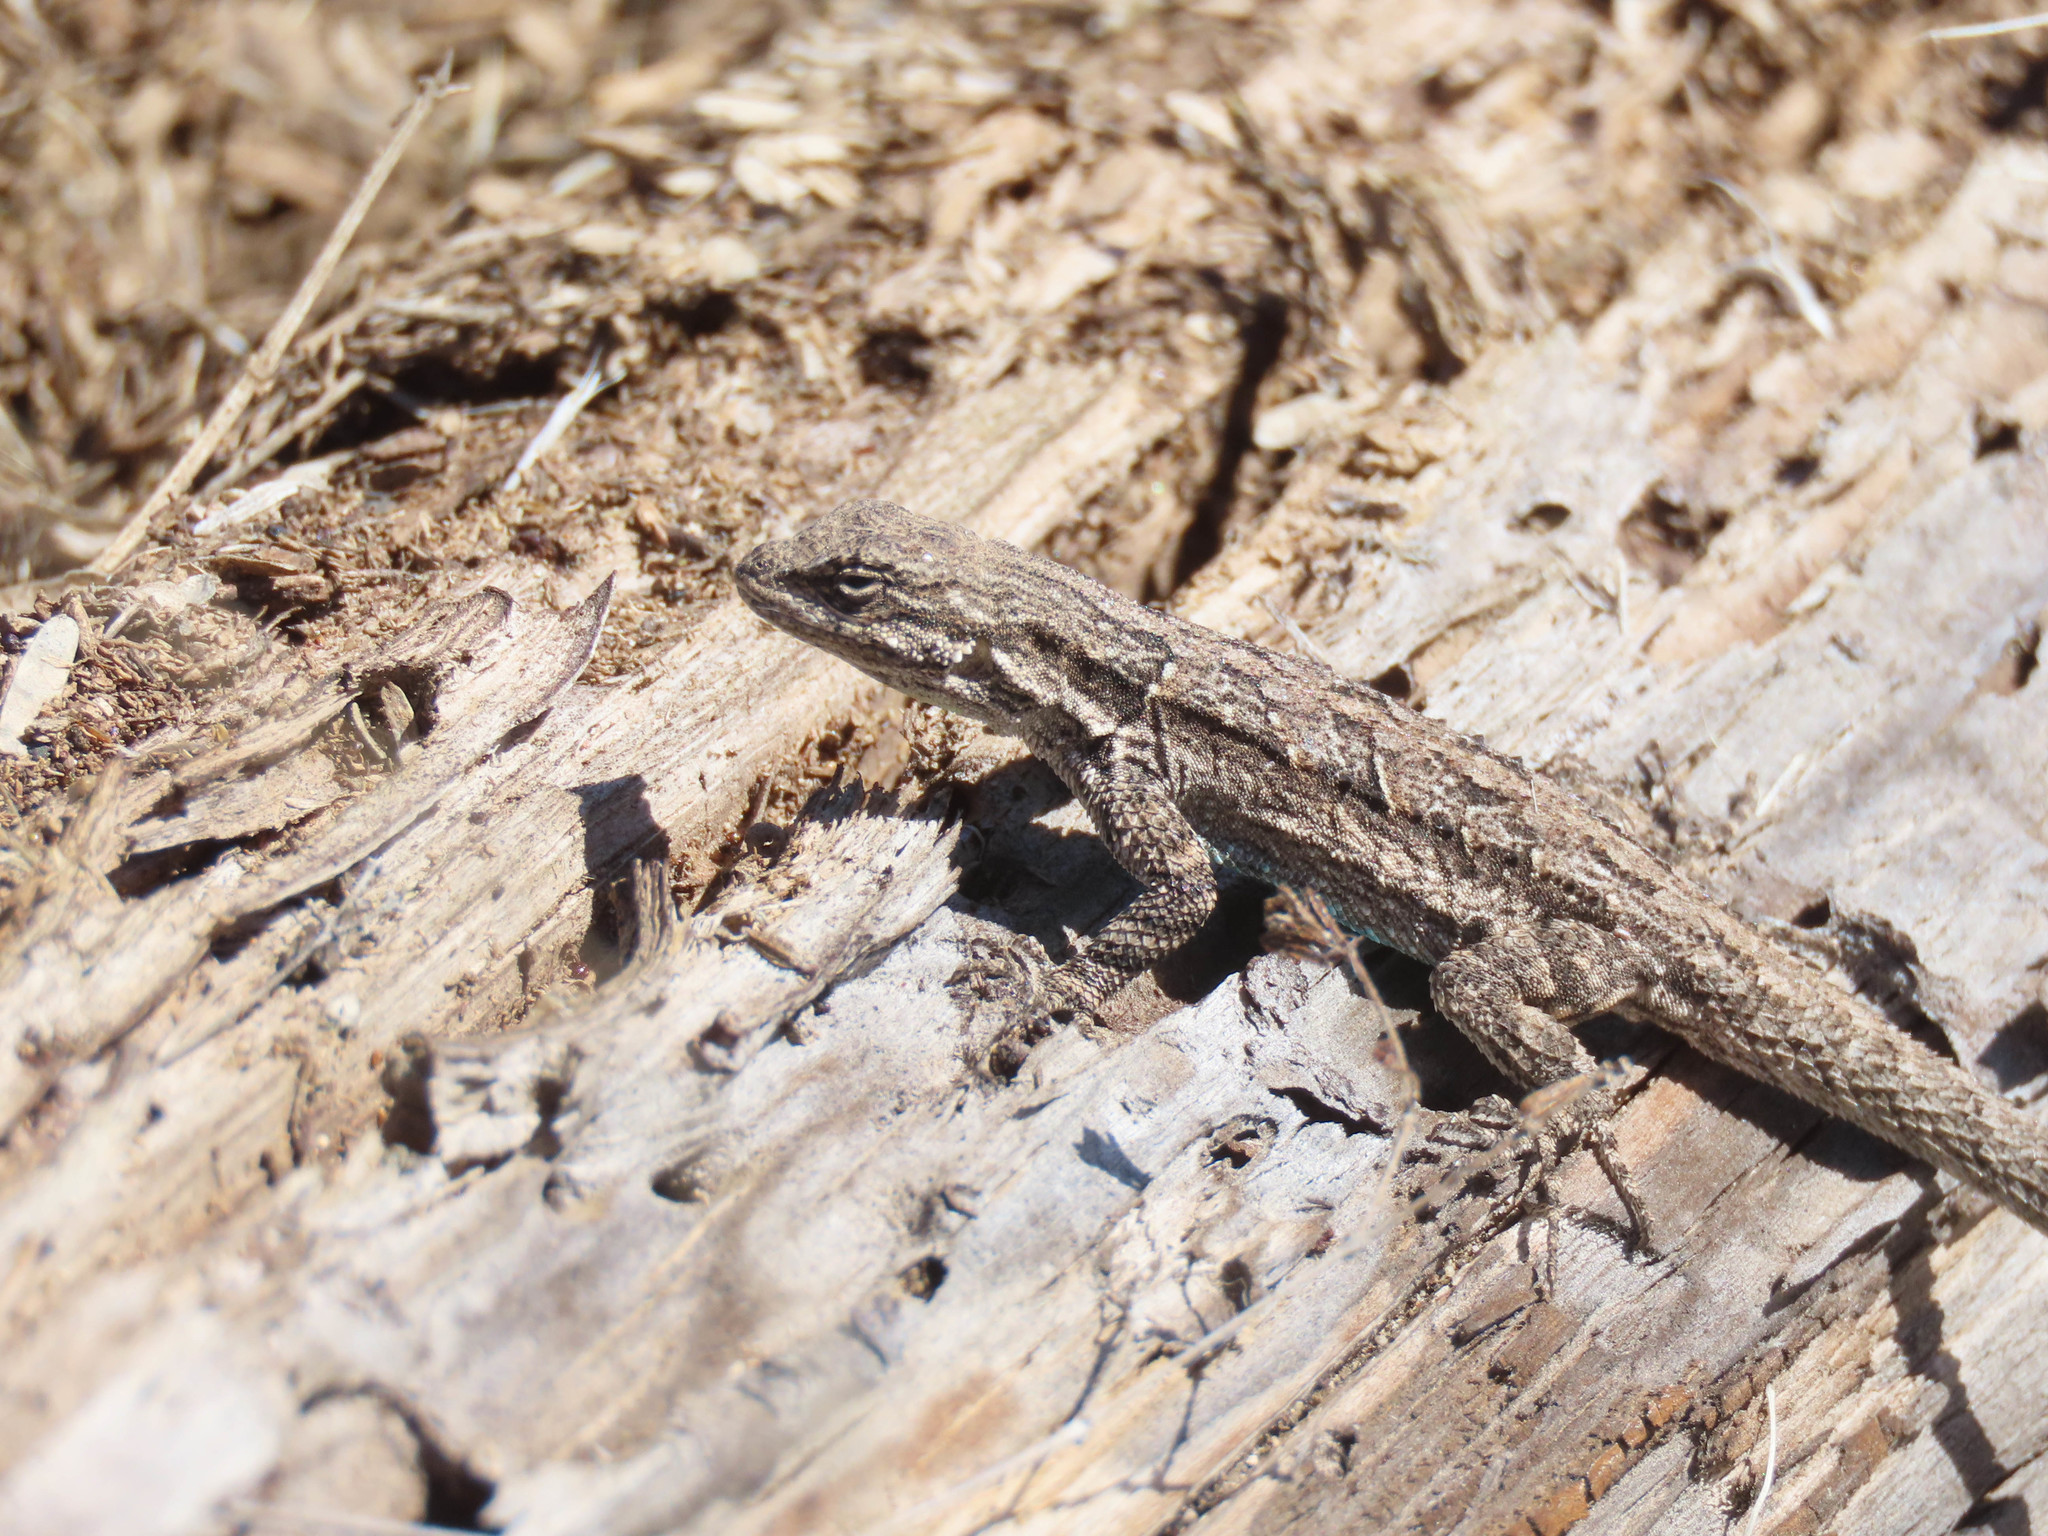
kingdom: Animalia
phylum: Chordata
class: Squamata
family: Phrynosomatidae
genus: Urosaurus
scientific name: Urosaurus ornatus
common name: Ornate tree lizard
